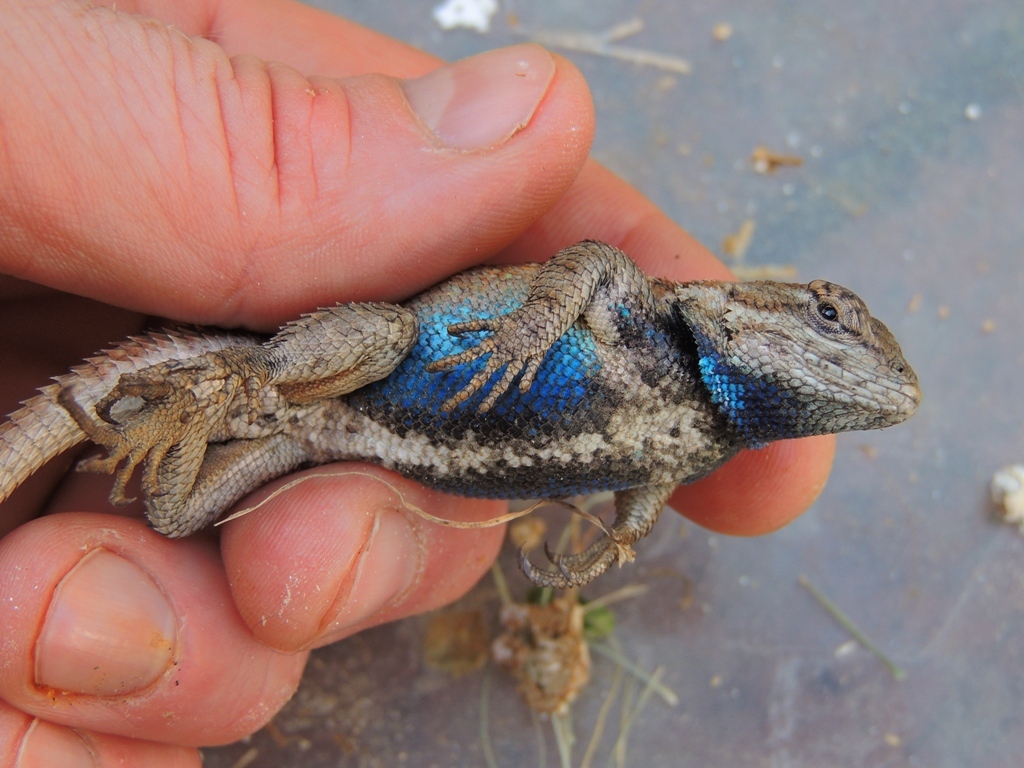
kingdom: Animalia
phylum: Chordata
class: Squamata
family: Phrynosomatidae
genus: Sceloporus
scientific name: Sceloporus undulatus
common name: Eastern fence lizard
